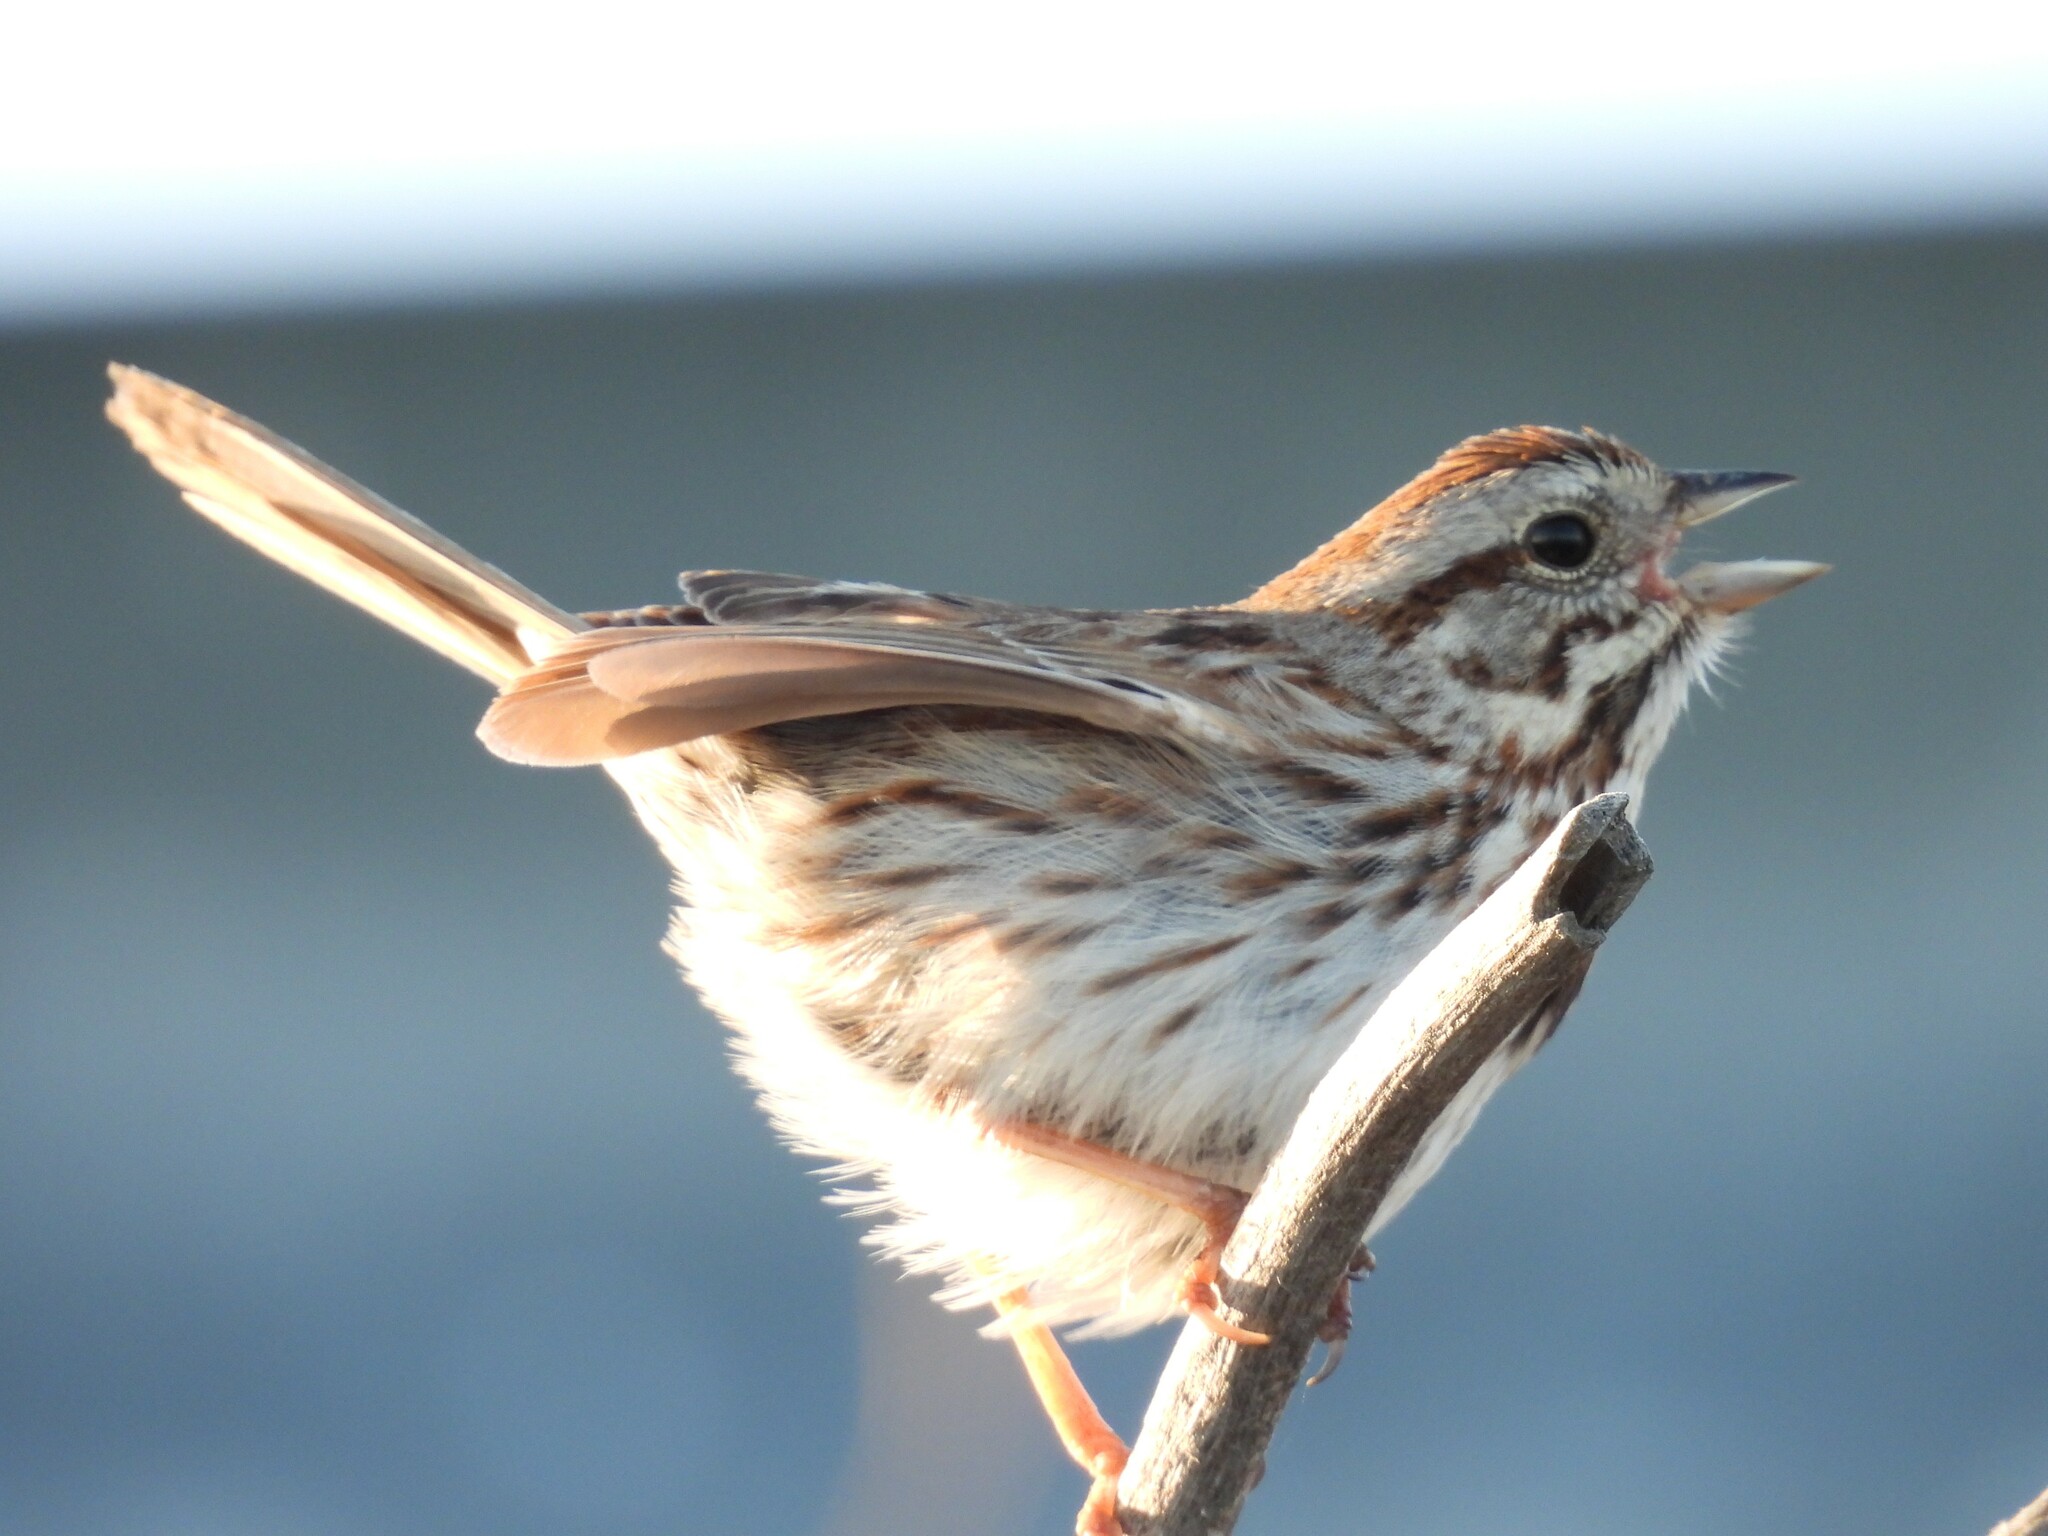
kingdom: Animalia
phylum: Chordata
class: Aves
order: Passeriformes
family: Passerellidae
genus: Melospiza
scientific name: Melospiza melodia
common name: Song sparrow
